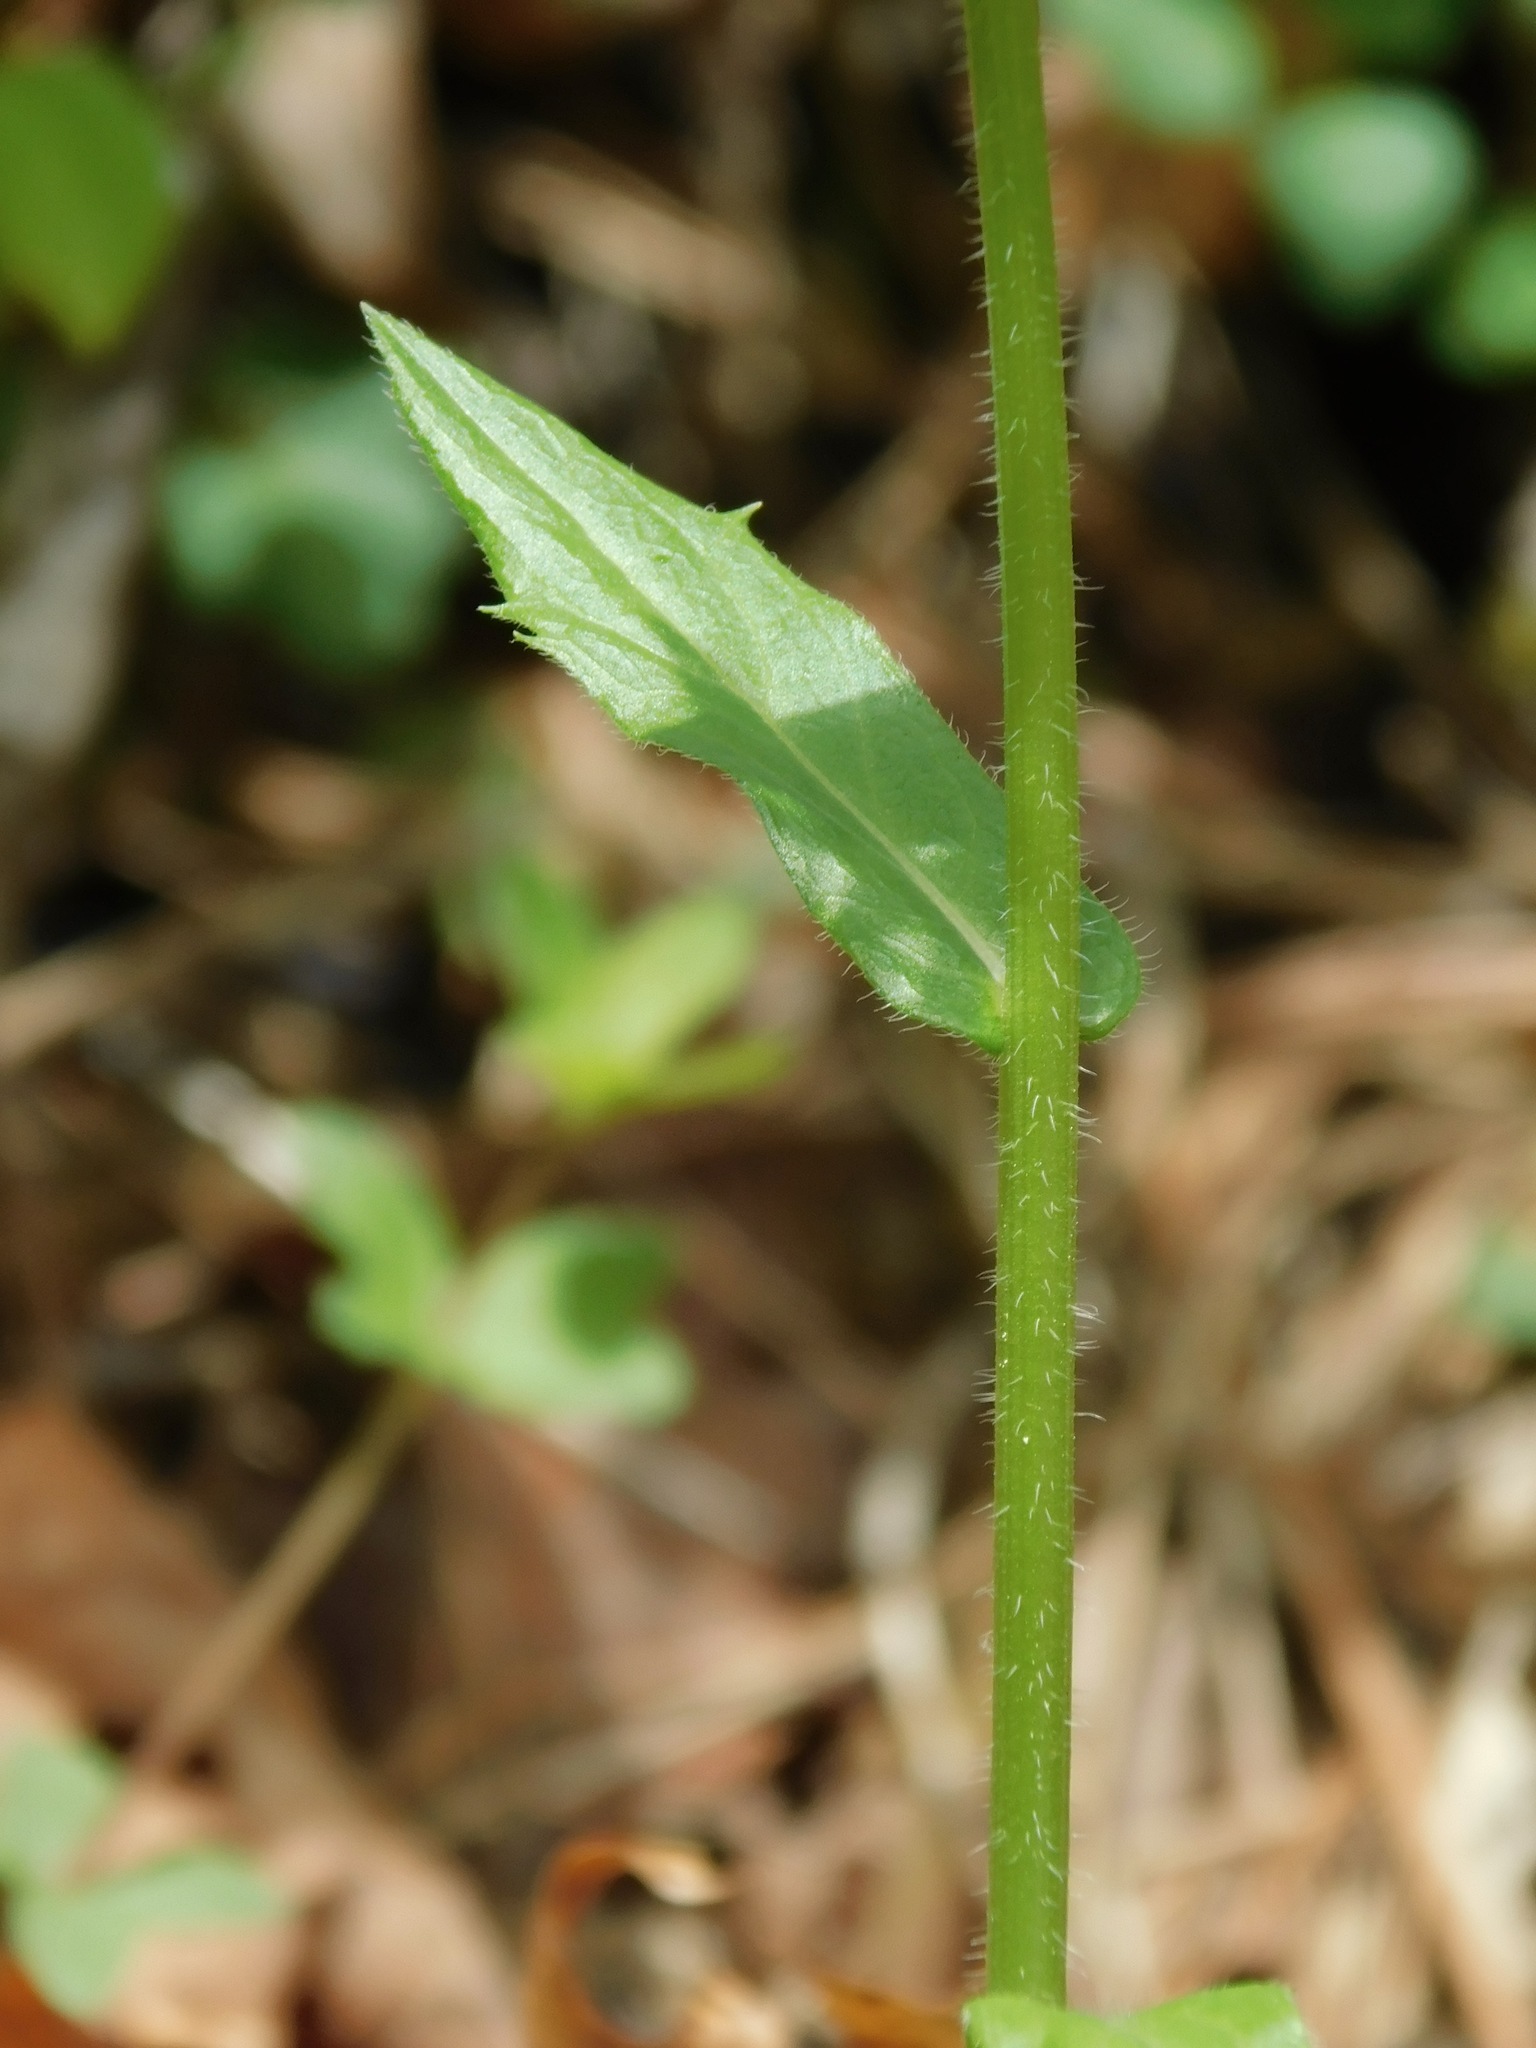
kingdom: Plantae
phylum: Tracheophyta
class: Magnoliopsida
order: Asterales
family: Asteraceae
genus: Erigeron
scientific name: Erigeron philadelphicus
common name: Robin's-plantain
